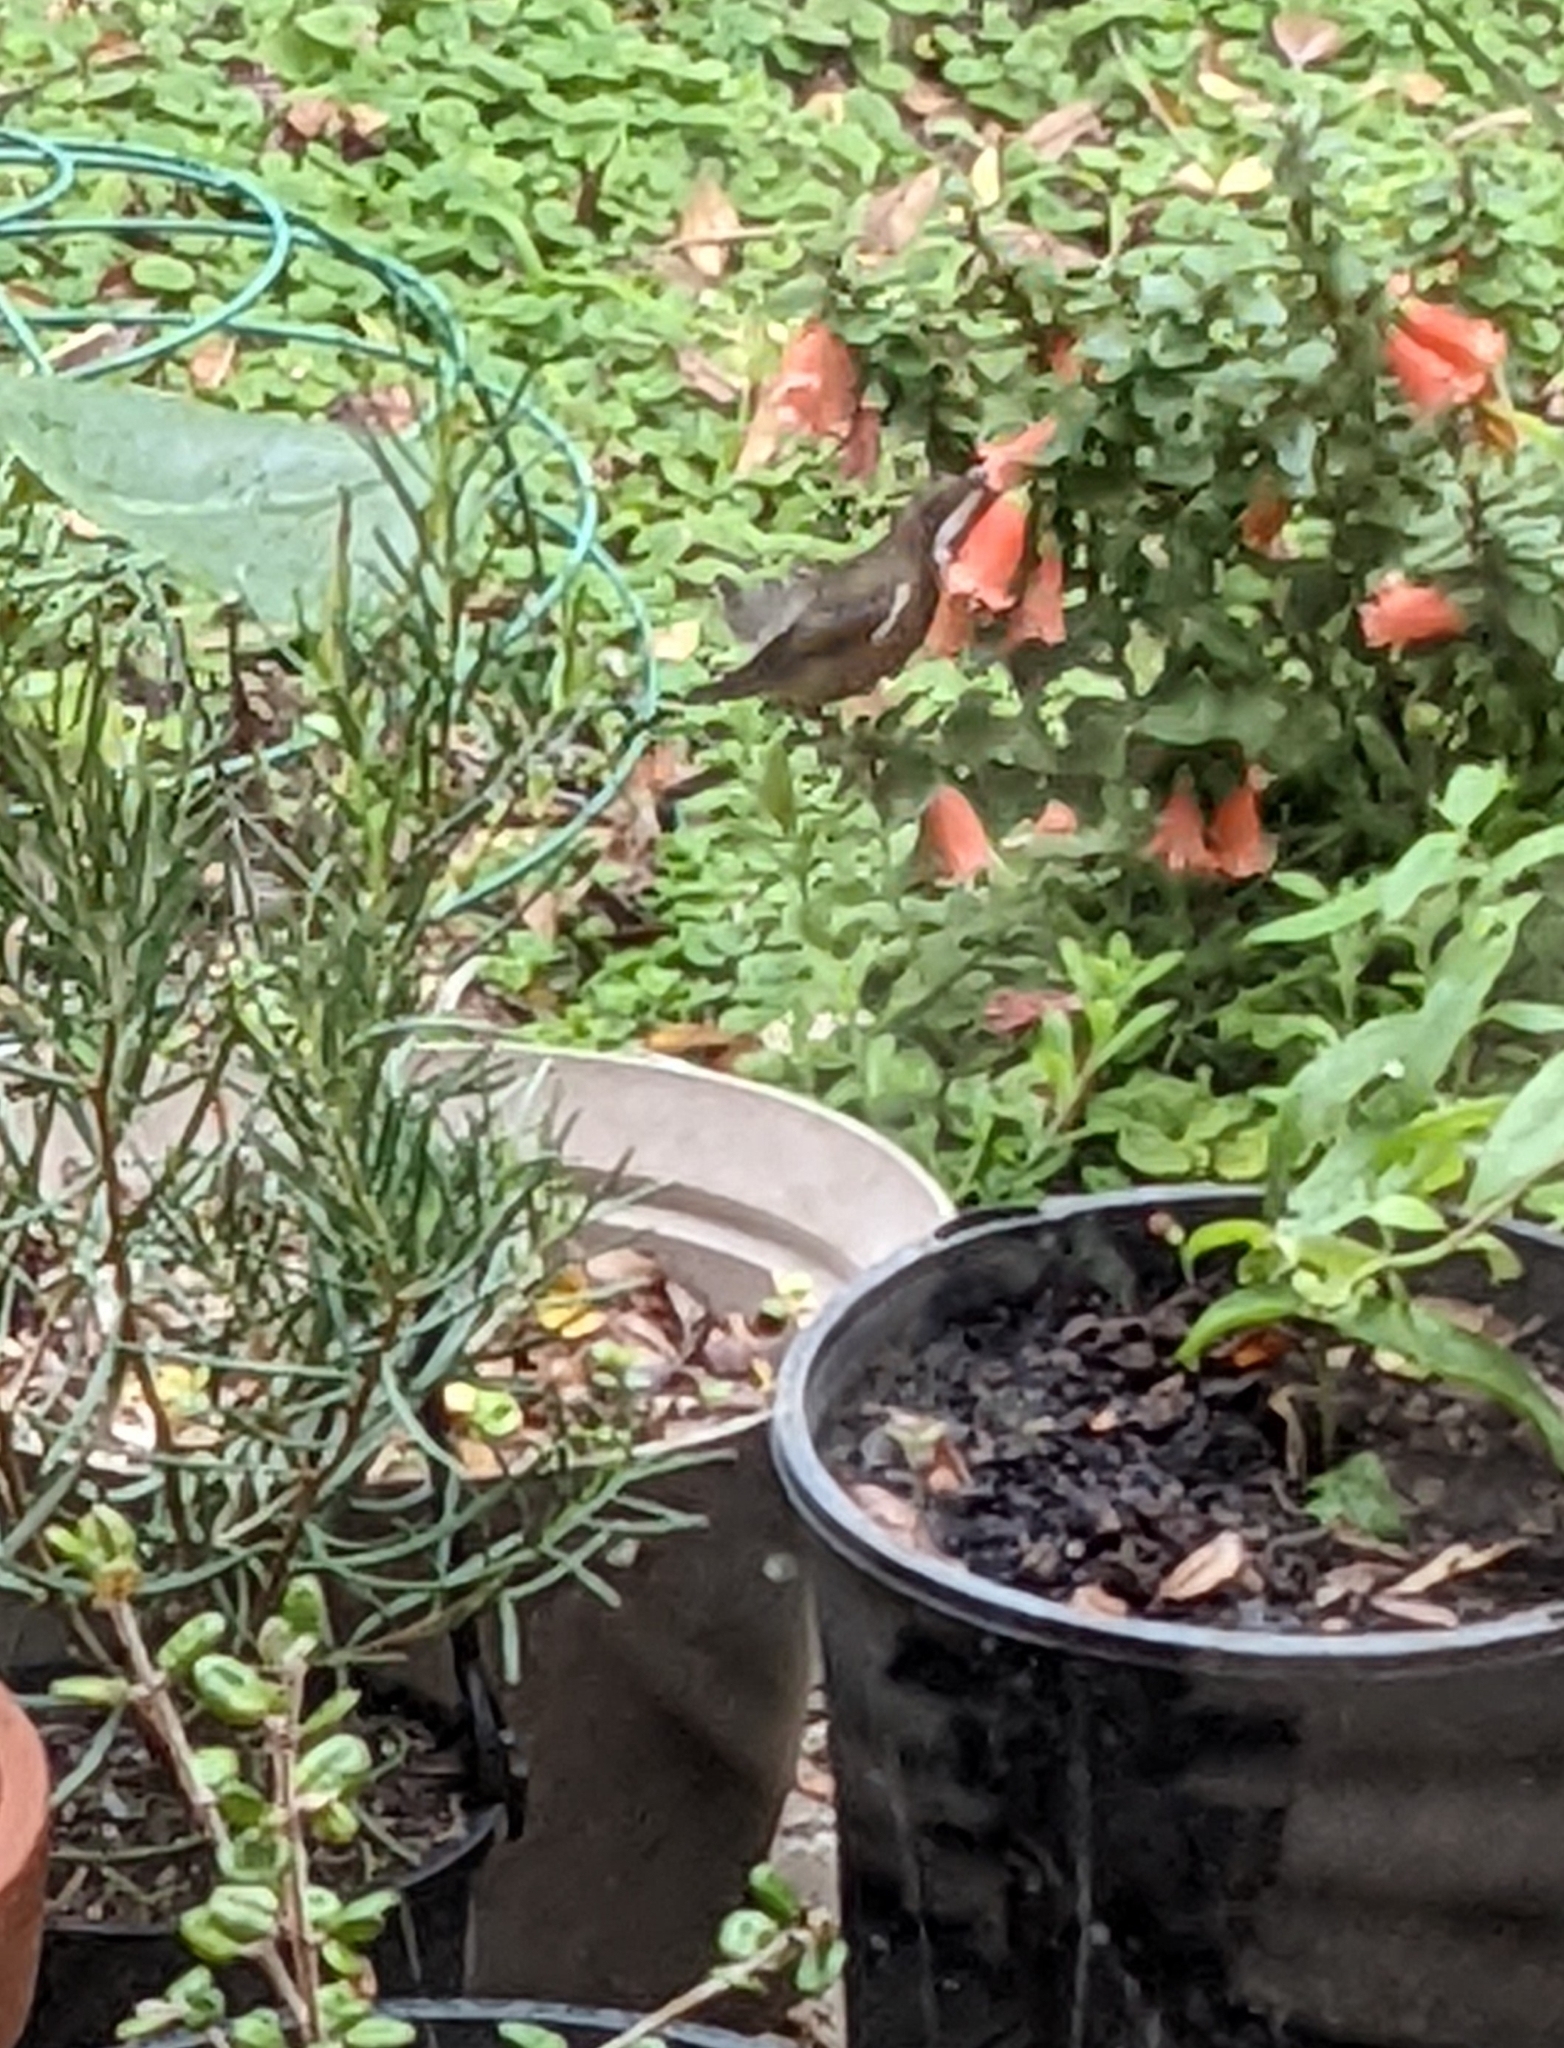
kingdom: Animalia
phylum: Chordata
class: Aves
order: Passeriformes
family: Meliphagidae
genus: Acanthorhynchus
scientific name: Acanthorhynchus tenuirostris
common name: Eastern spinebill
